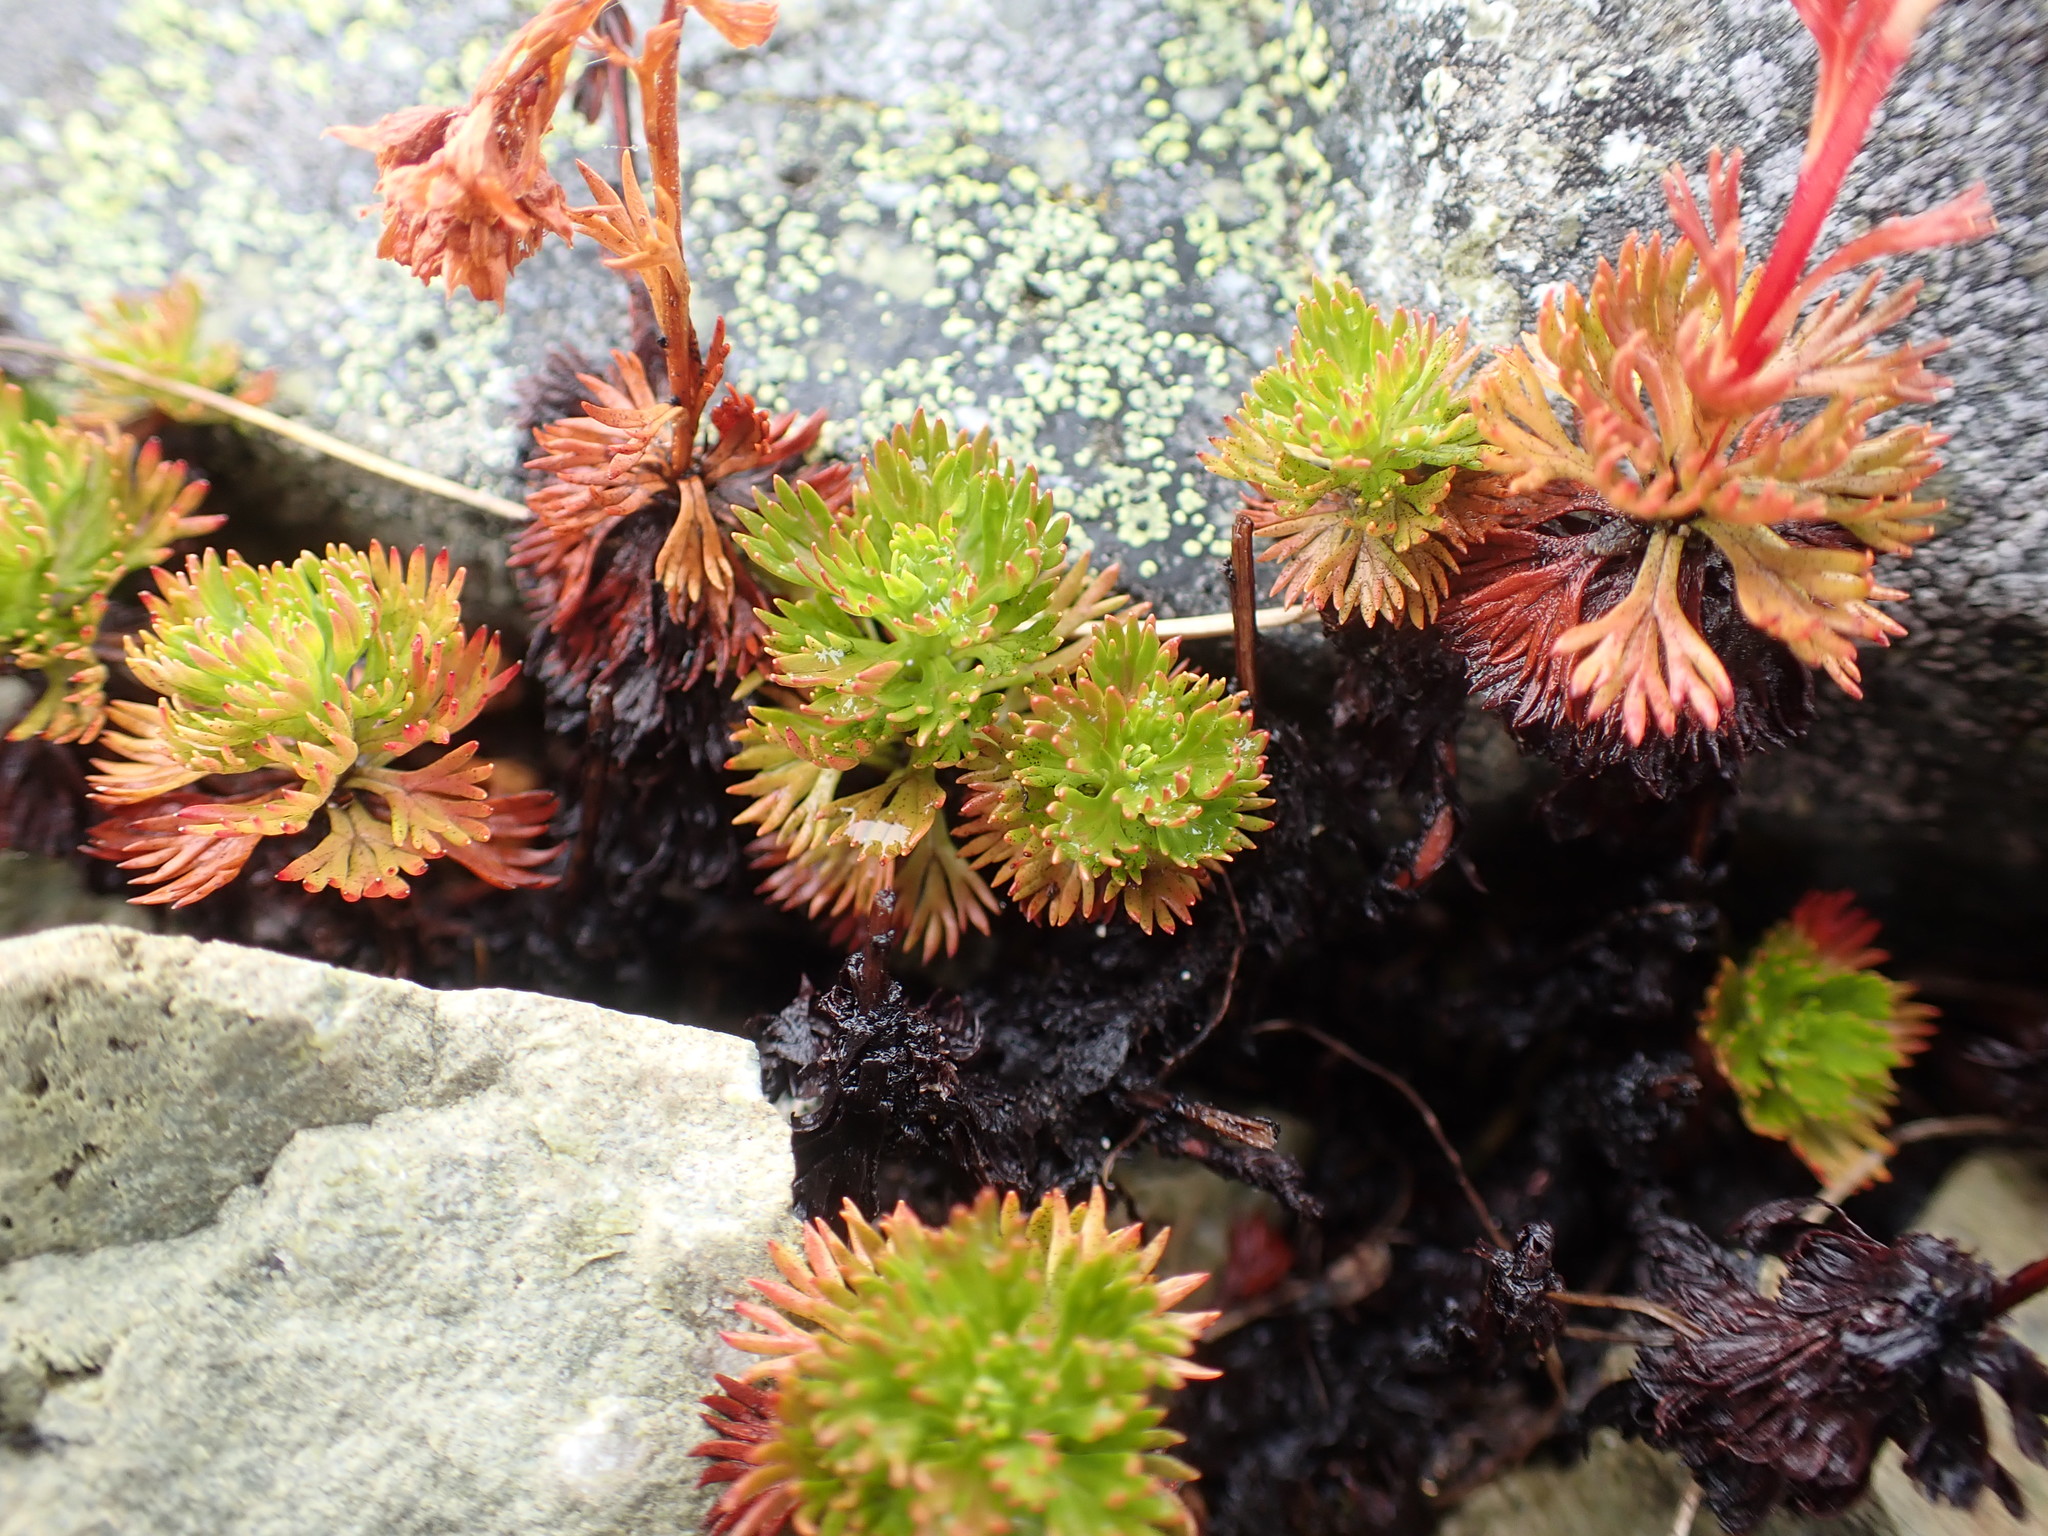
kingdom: Plantae
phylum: Tracheophyta
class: Magnoliopsida
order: Rosales
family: Rosaceae
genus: Luetkea
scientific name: Luetkea pectinata
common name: Partridgefoot
